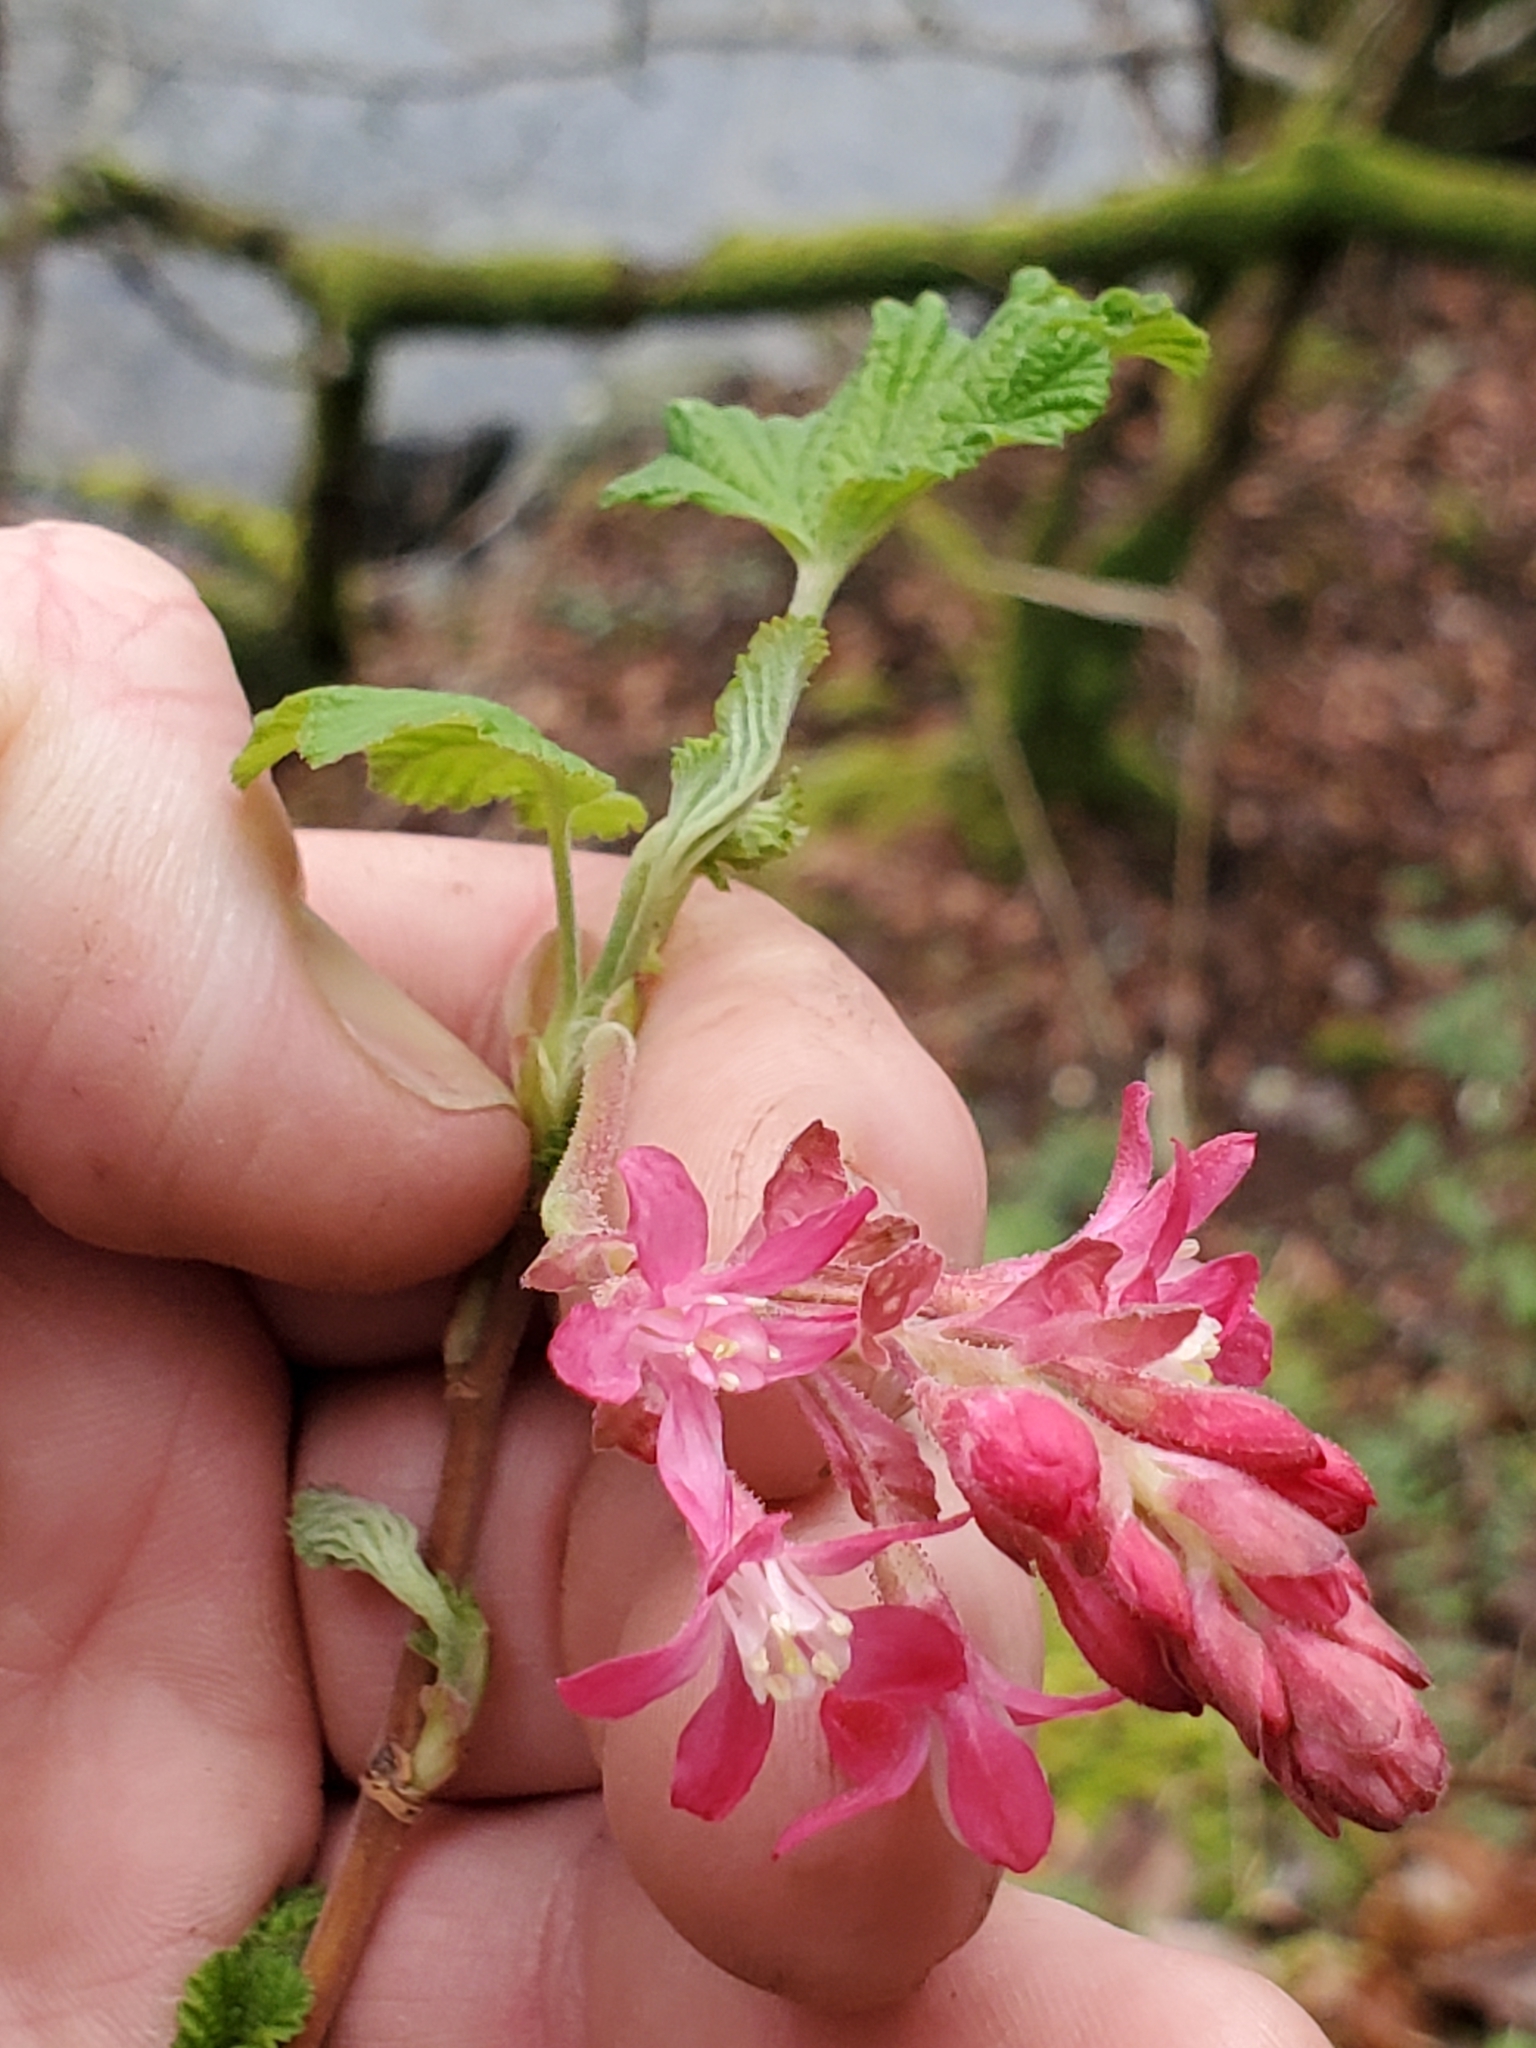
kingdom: Plantae
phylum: Tracheophyta
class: Magnoliopsida
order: Saxifragales
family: Grossulariaceae
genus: Ribes
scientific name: Ribes sanguineum
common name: Flowering currant
